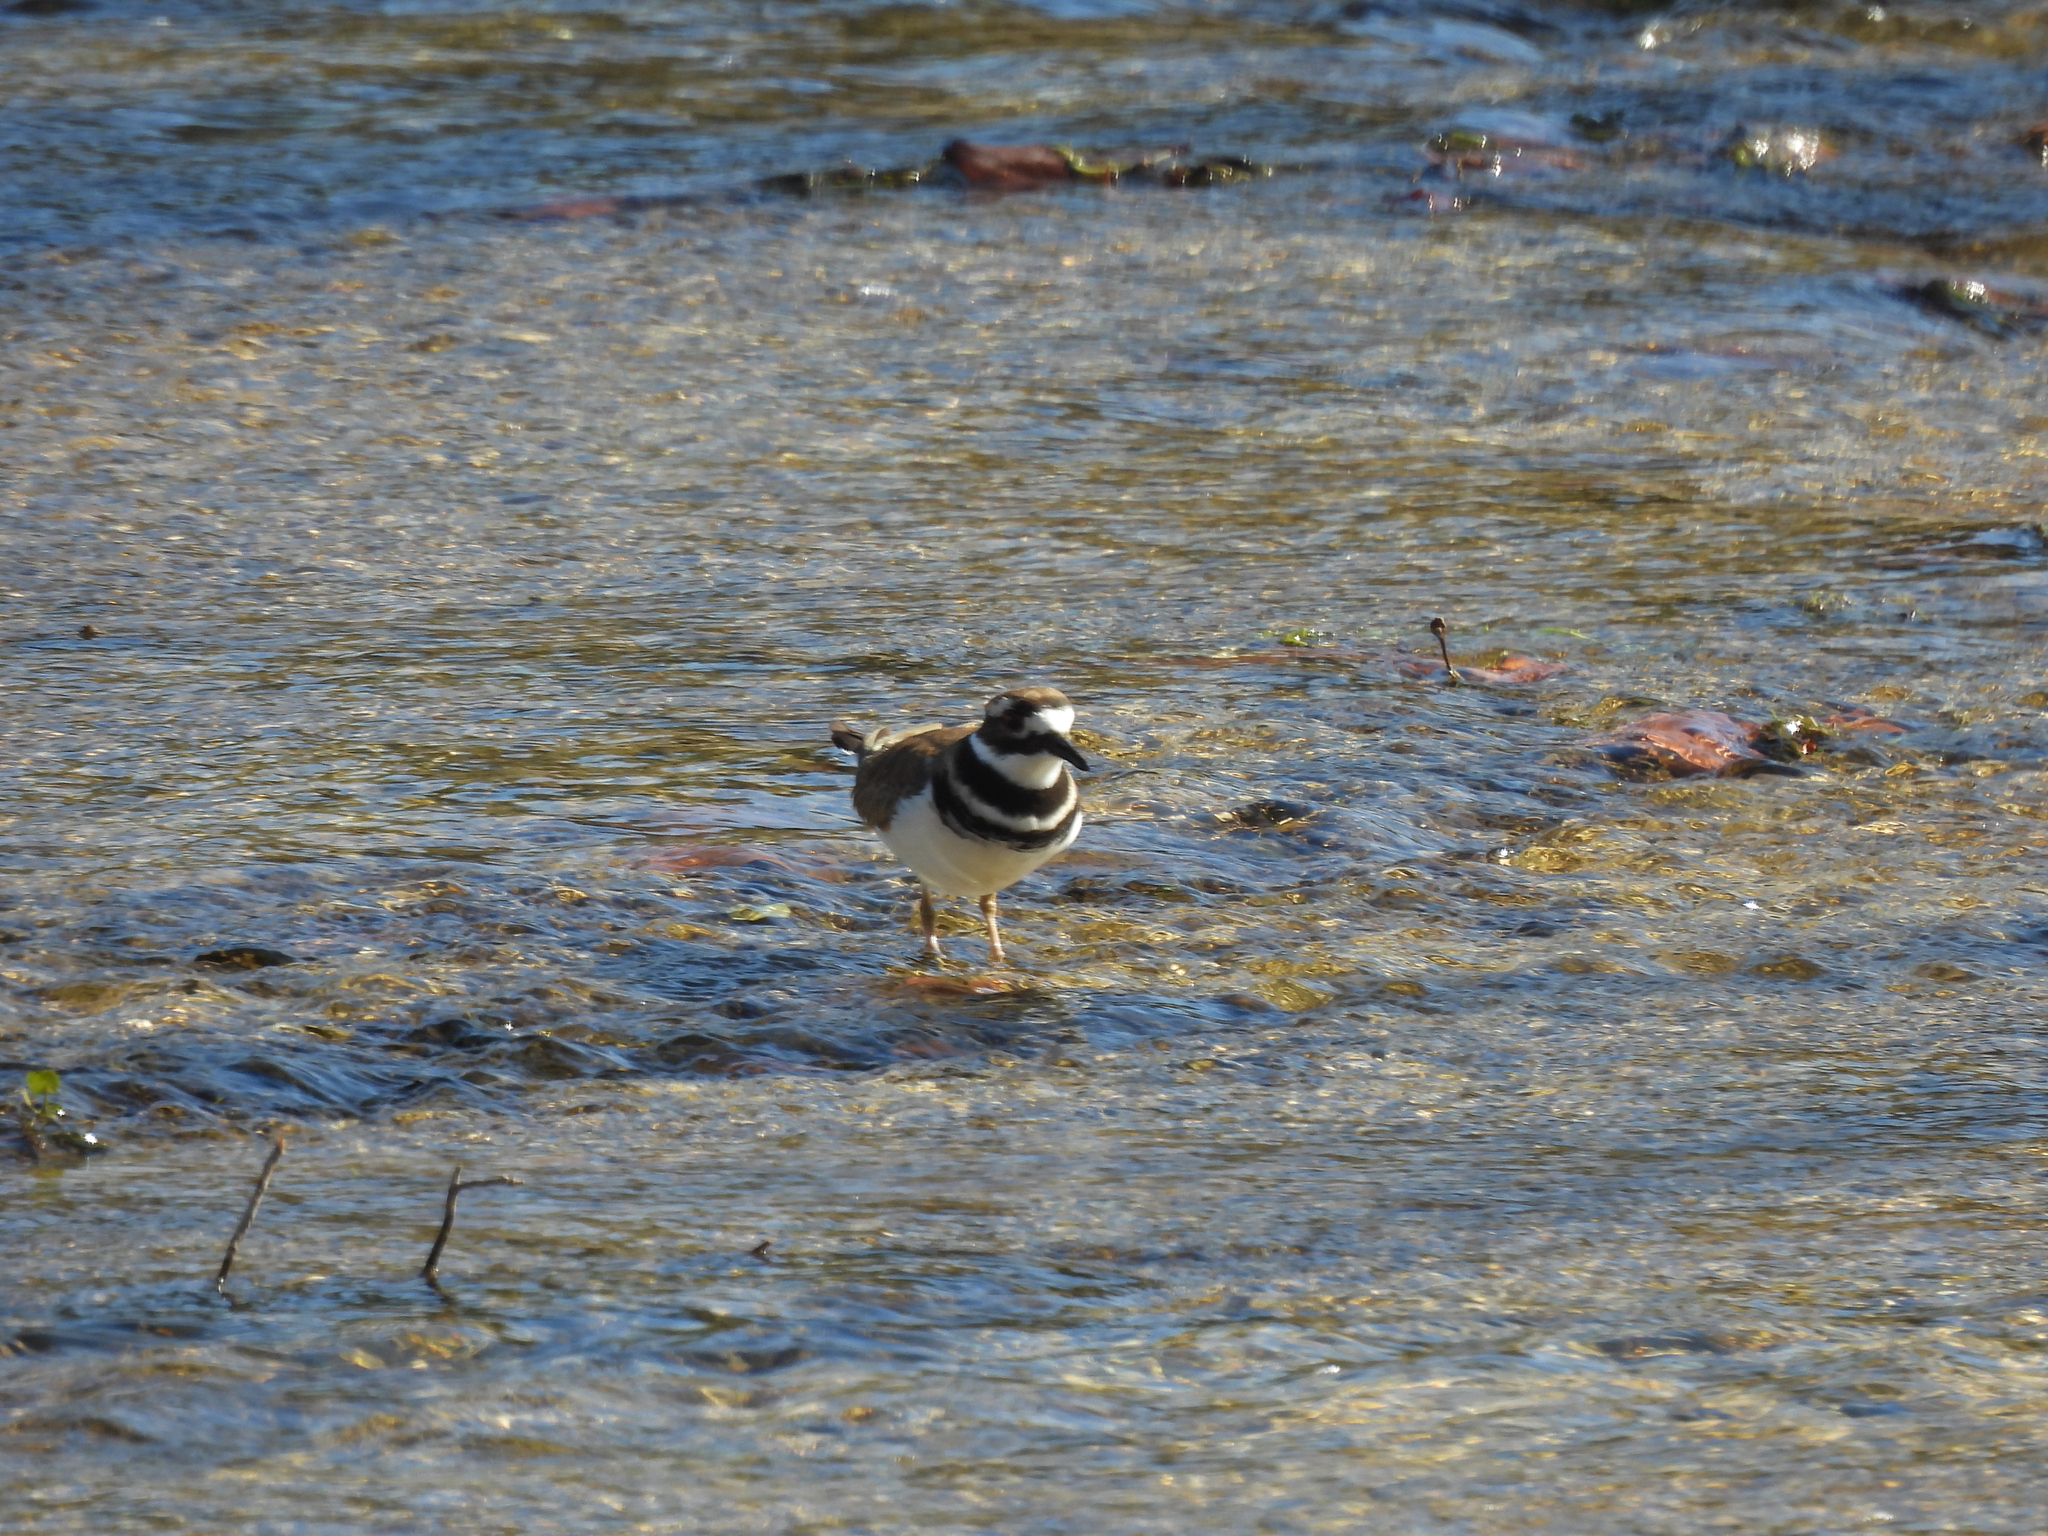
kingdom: Animalia
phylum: Chordata
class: Aves
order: Charadriiformes
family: Charadriidae
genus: Charadrius
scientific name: Charadrius vociferus
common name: Killdeer
